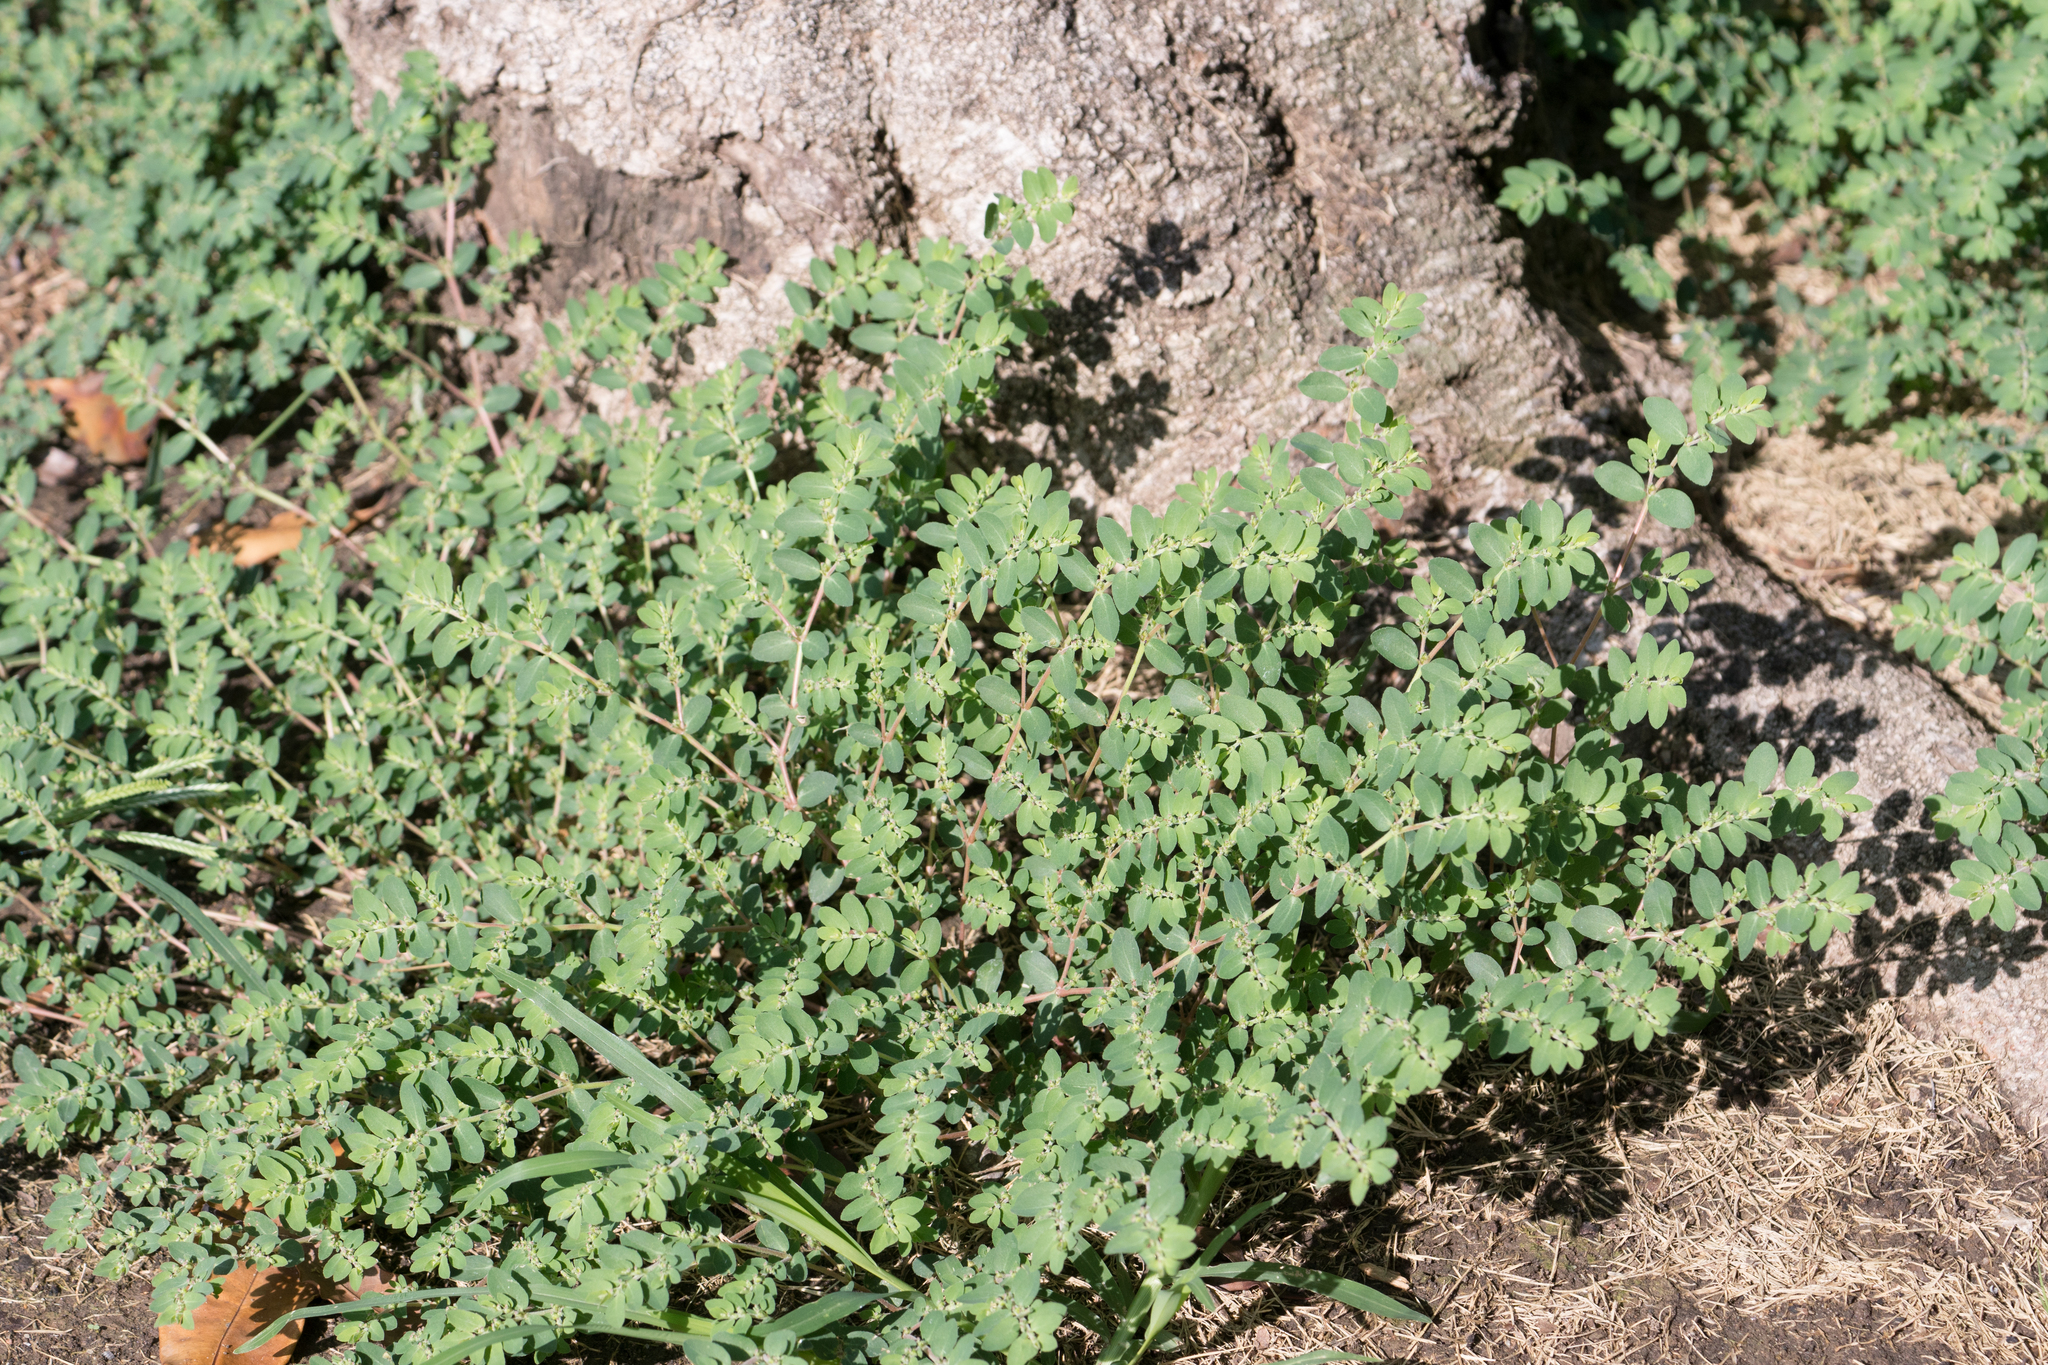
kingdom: Plantae
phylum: Tracheophyta
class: Magnoliopsida
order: Malpighiales
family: Euphorbiaceae
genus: Euphorbia
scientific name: Euphorbia maculata
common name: Spotted spurge
